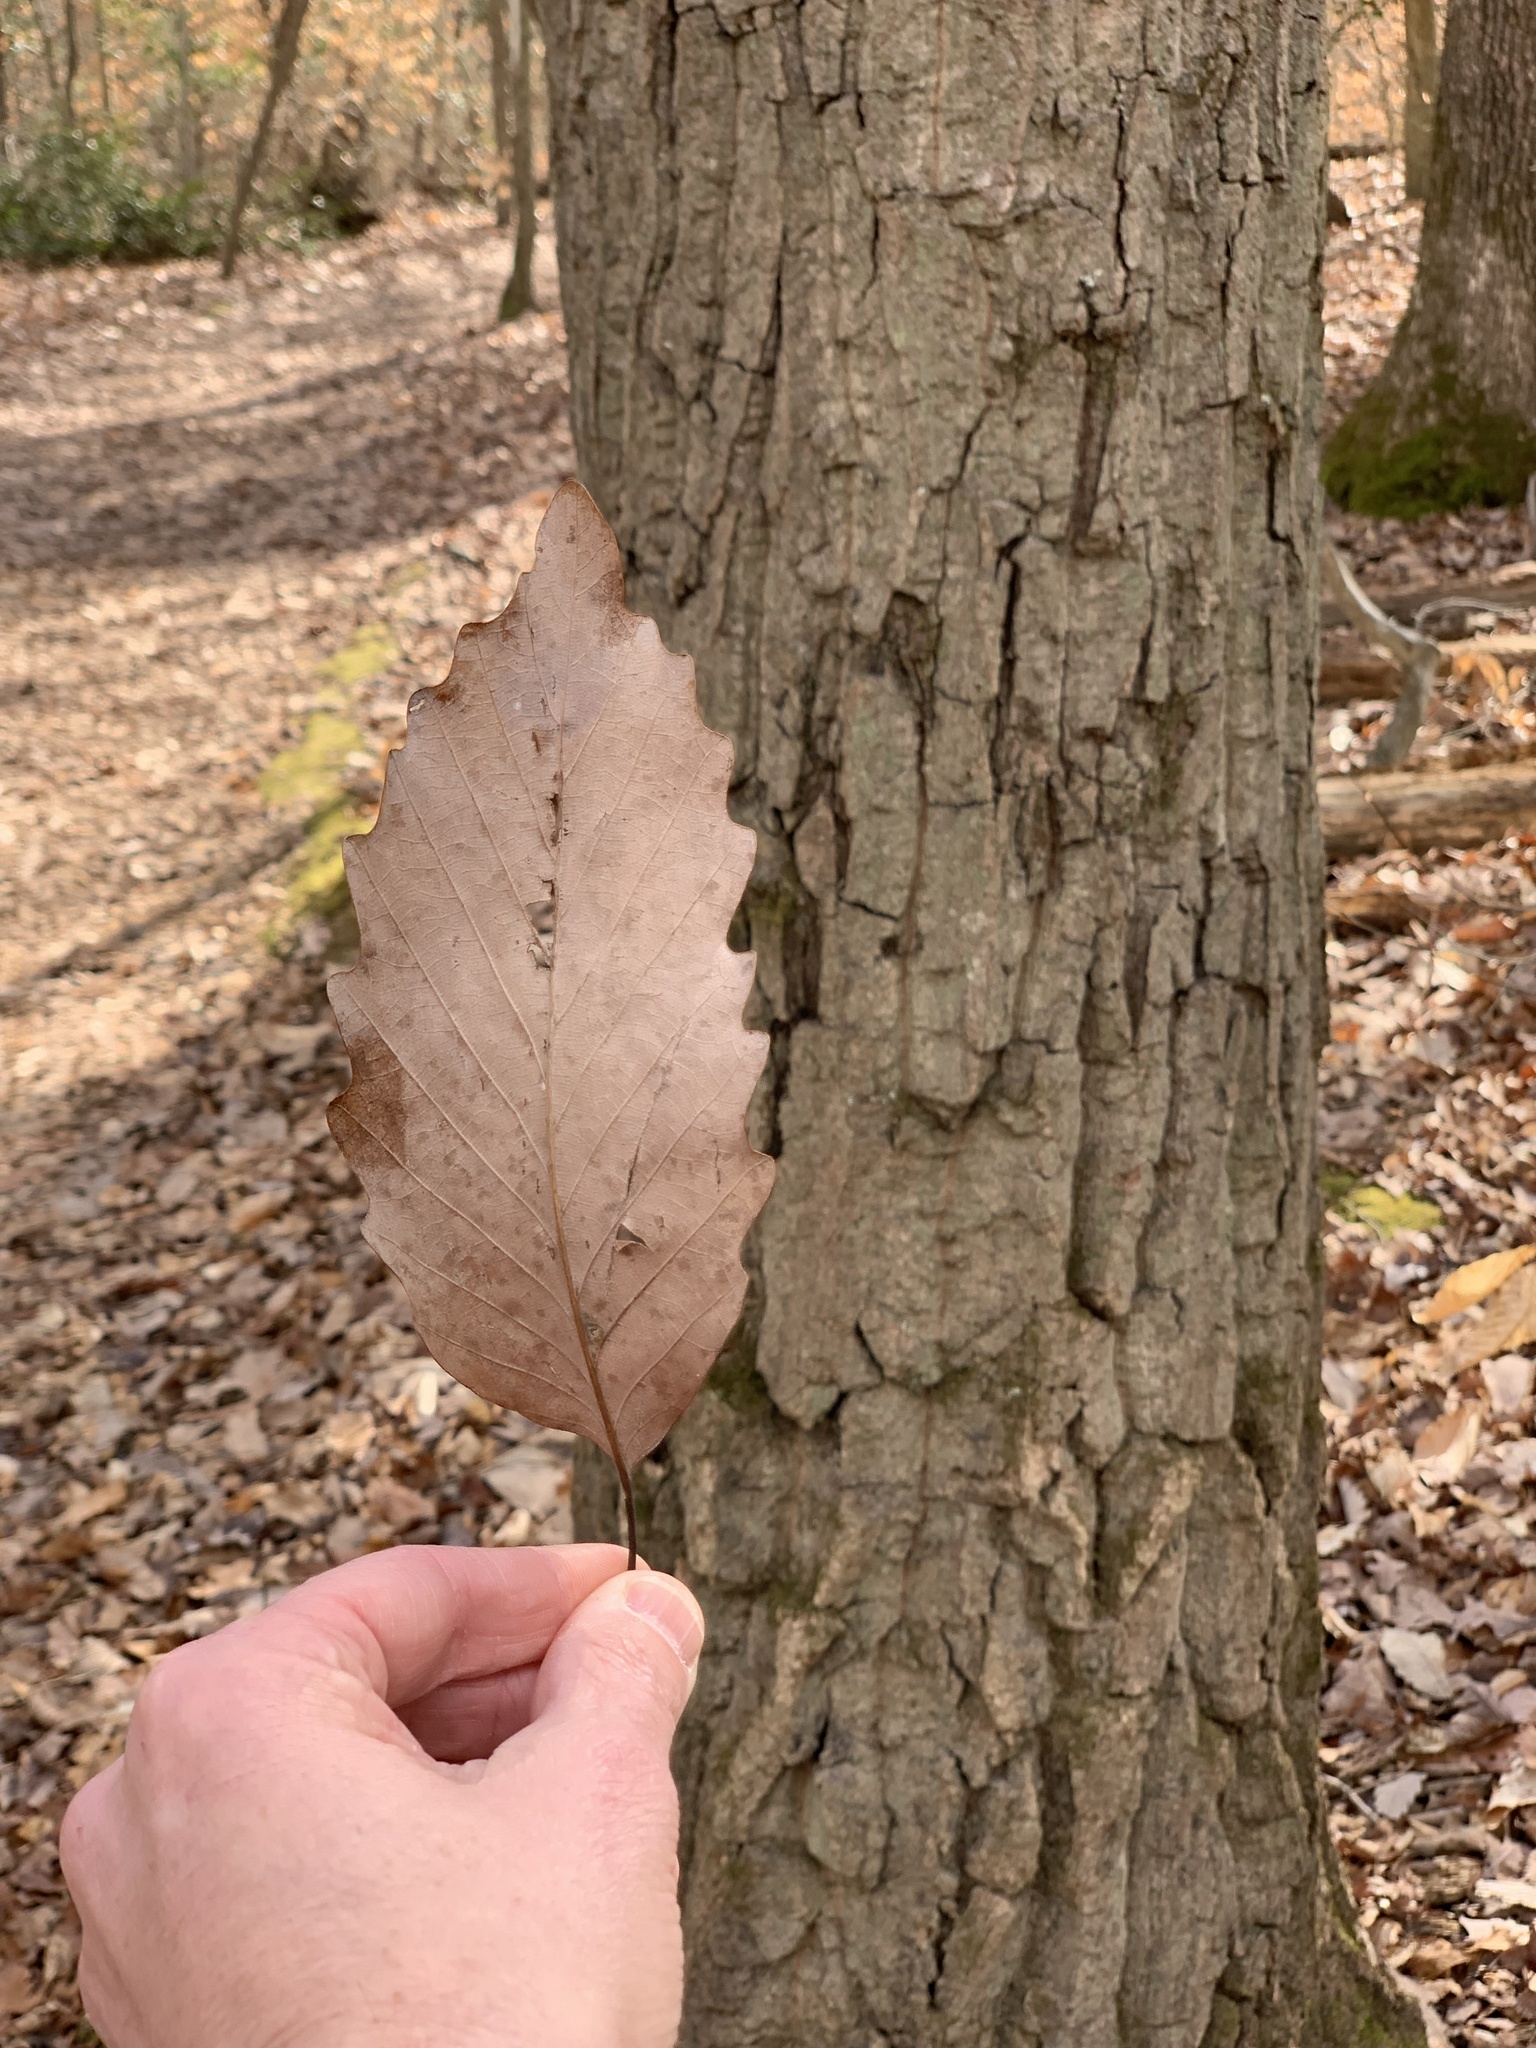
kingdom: Plantae
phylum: Tracheophyta
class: Magnoliopsida
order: Fagales
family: Fagaceae
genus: Quercus
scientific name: Quercus montana
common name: Chestnut oak
